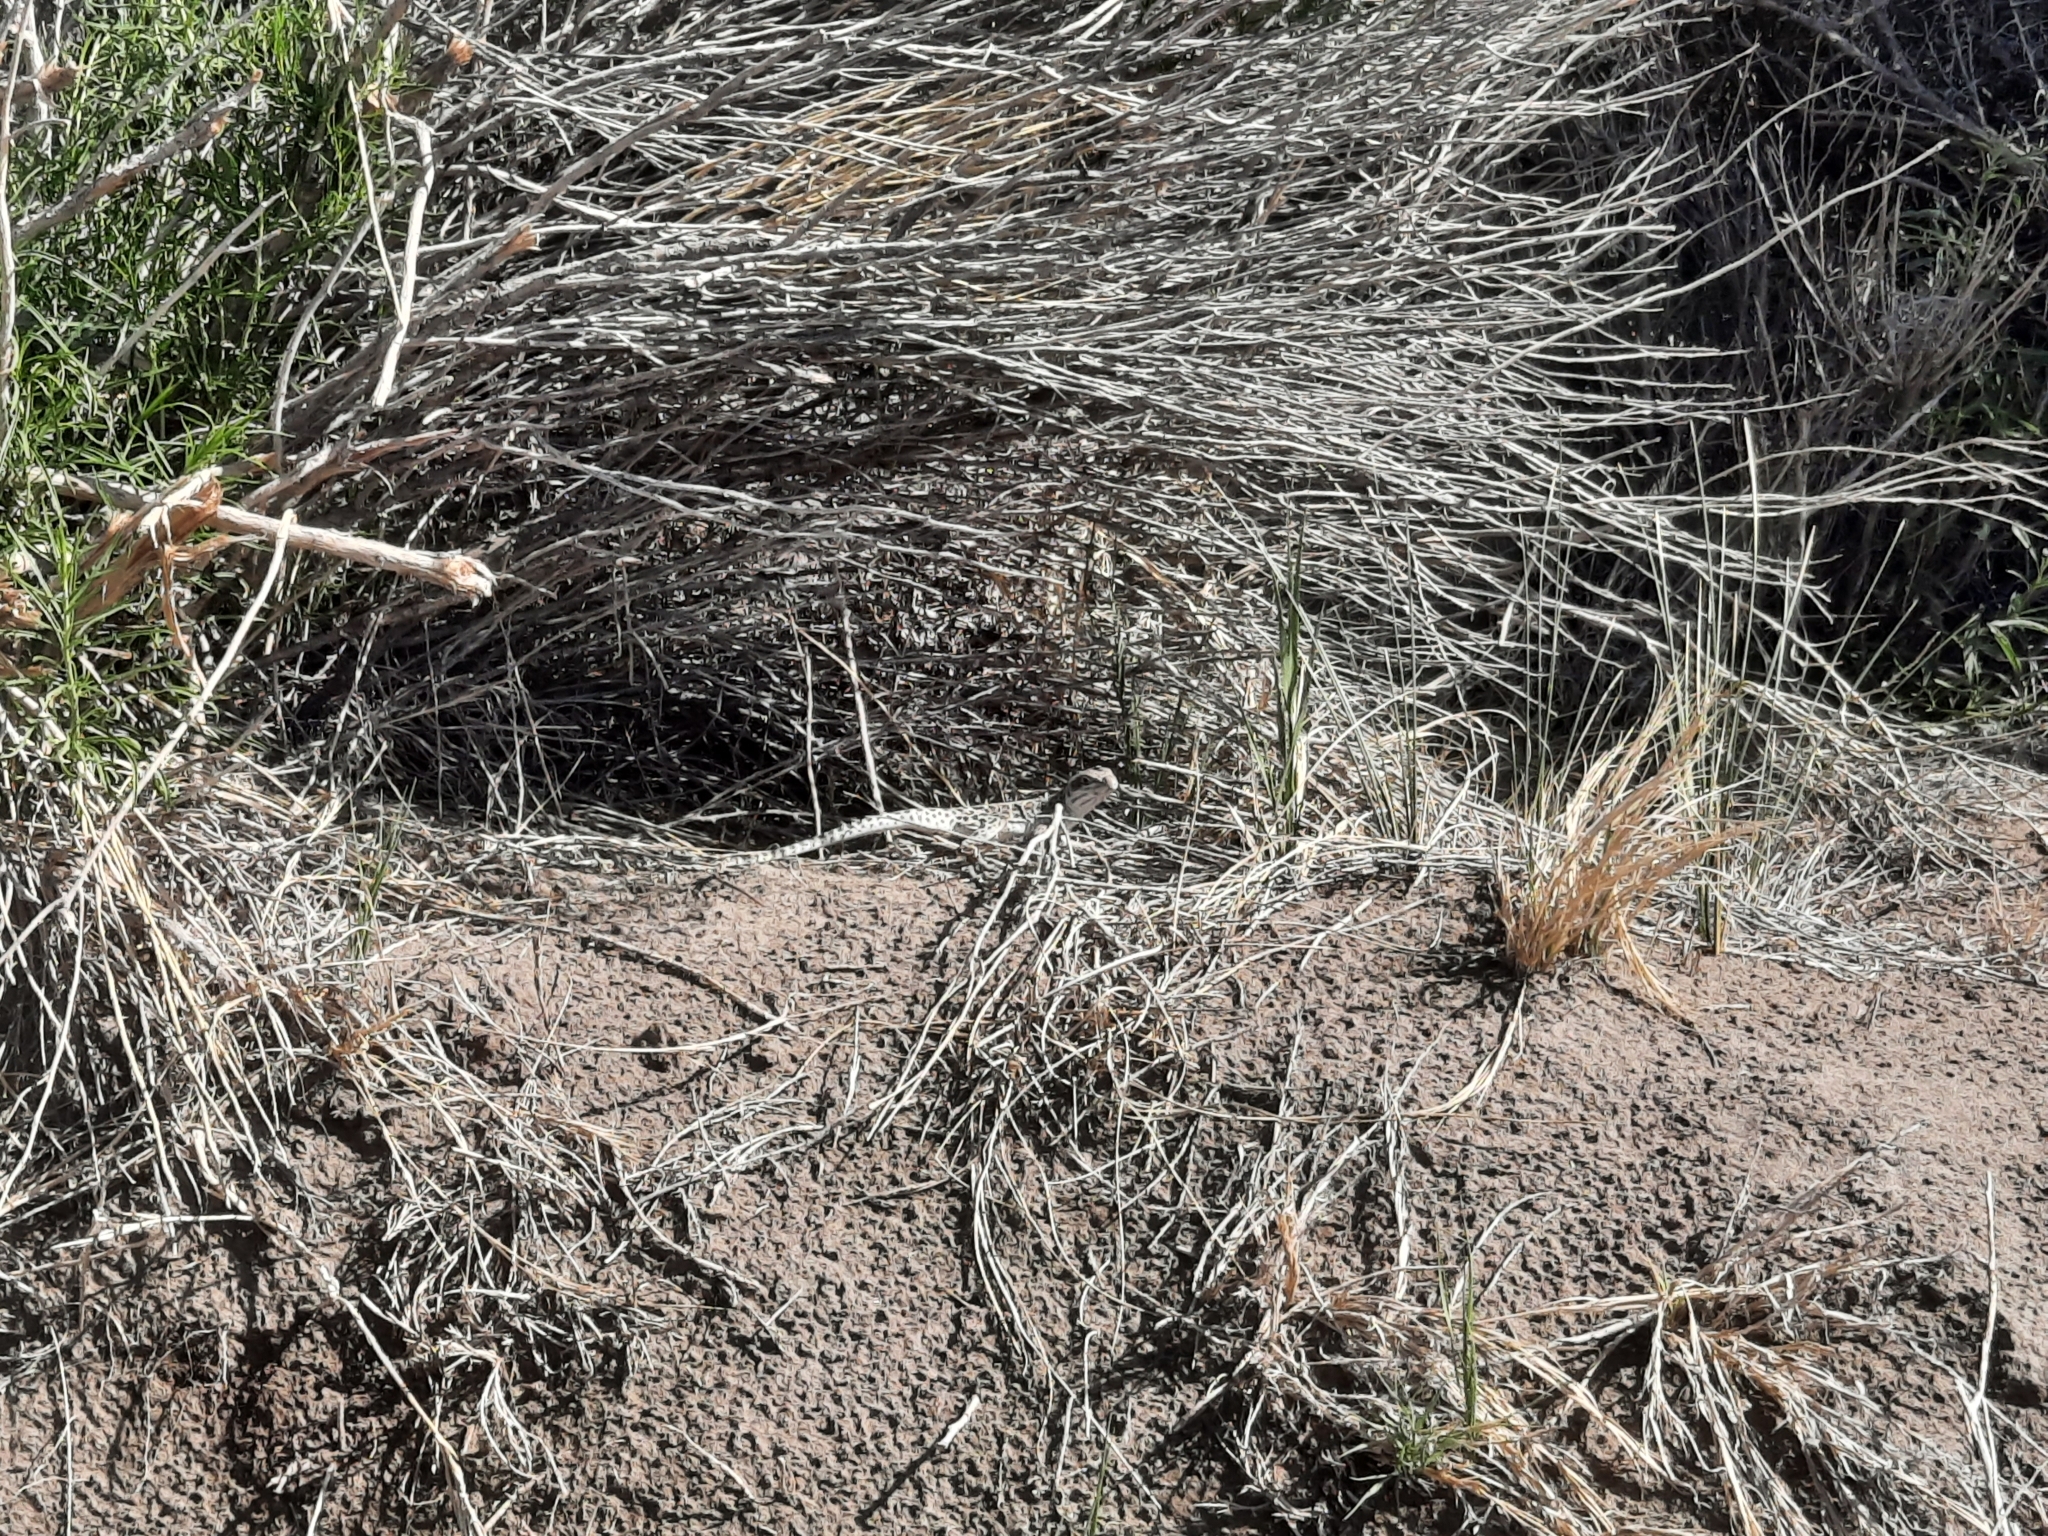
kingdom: Animalia
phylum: Chordata
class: Squamata
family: Crotaphytidae
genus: Gambelia
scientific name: Gambelia wislizenii
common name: Longnose leopard lizard
